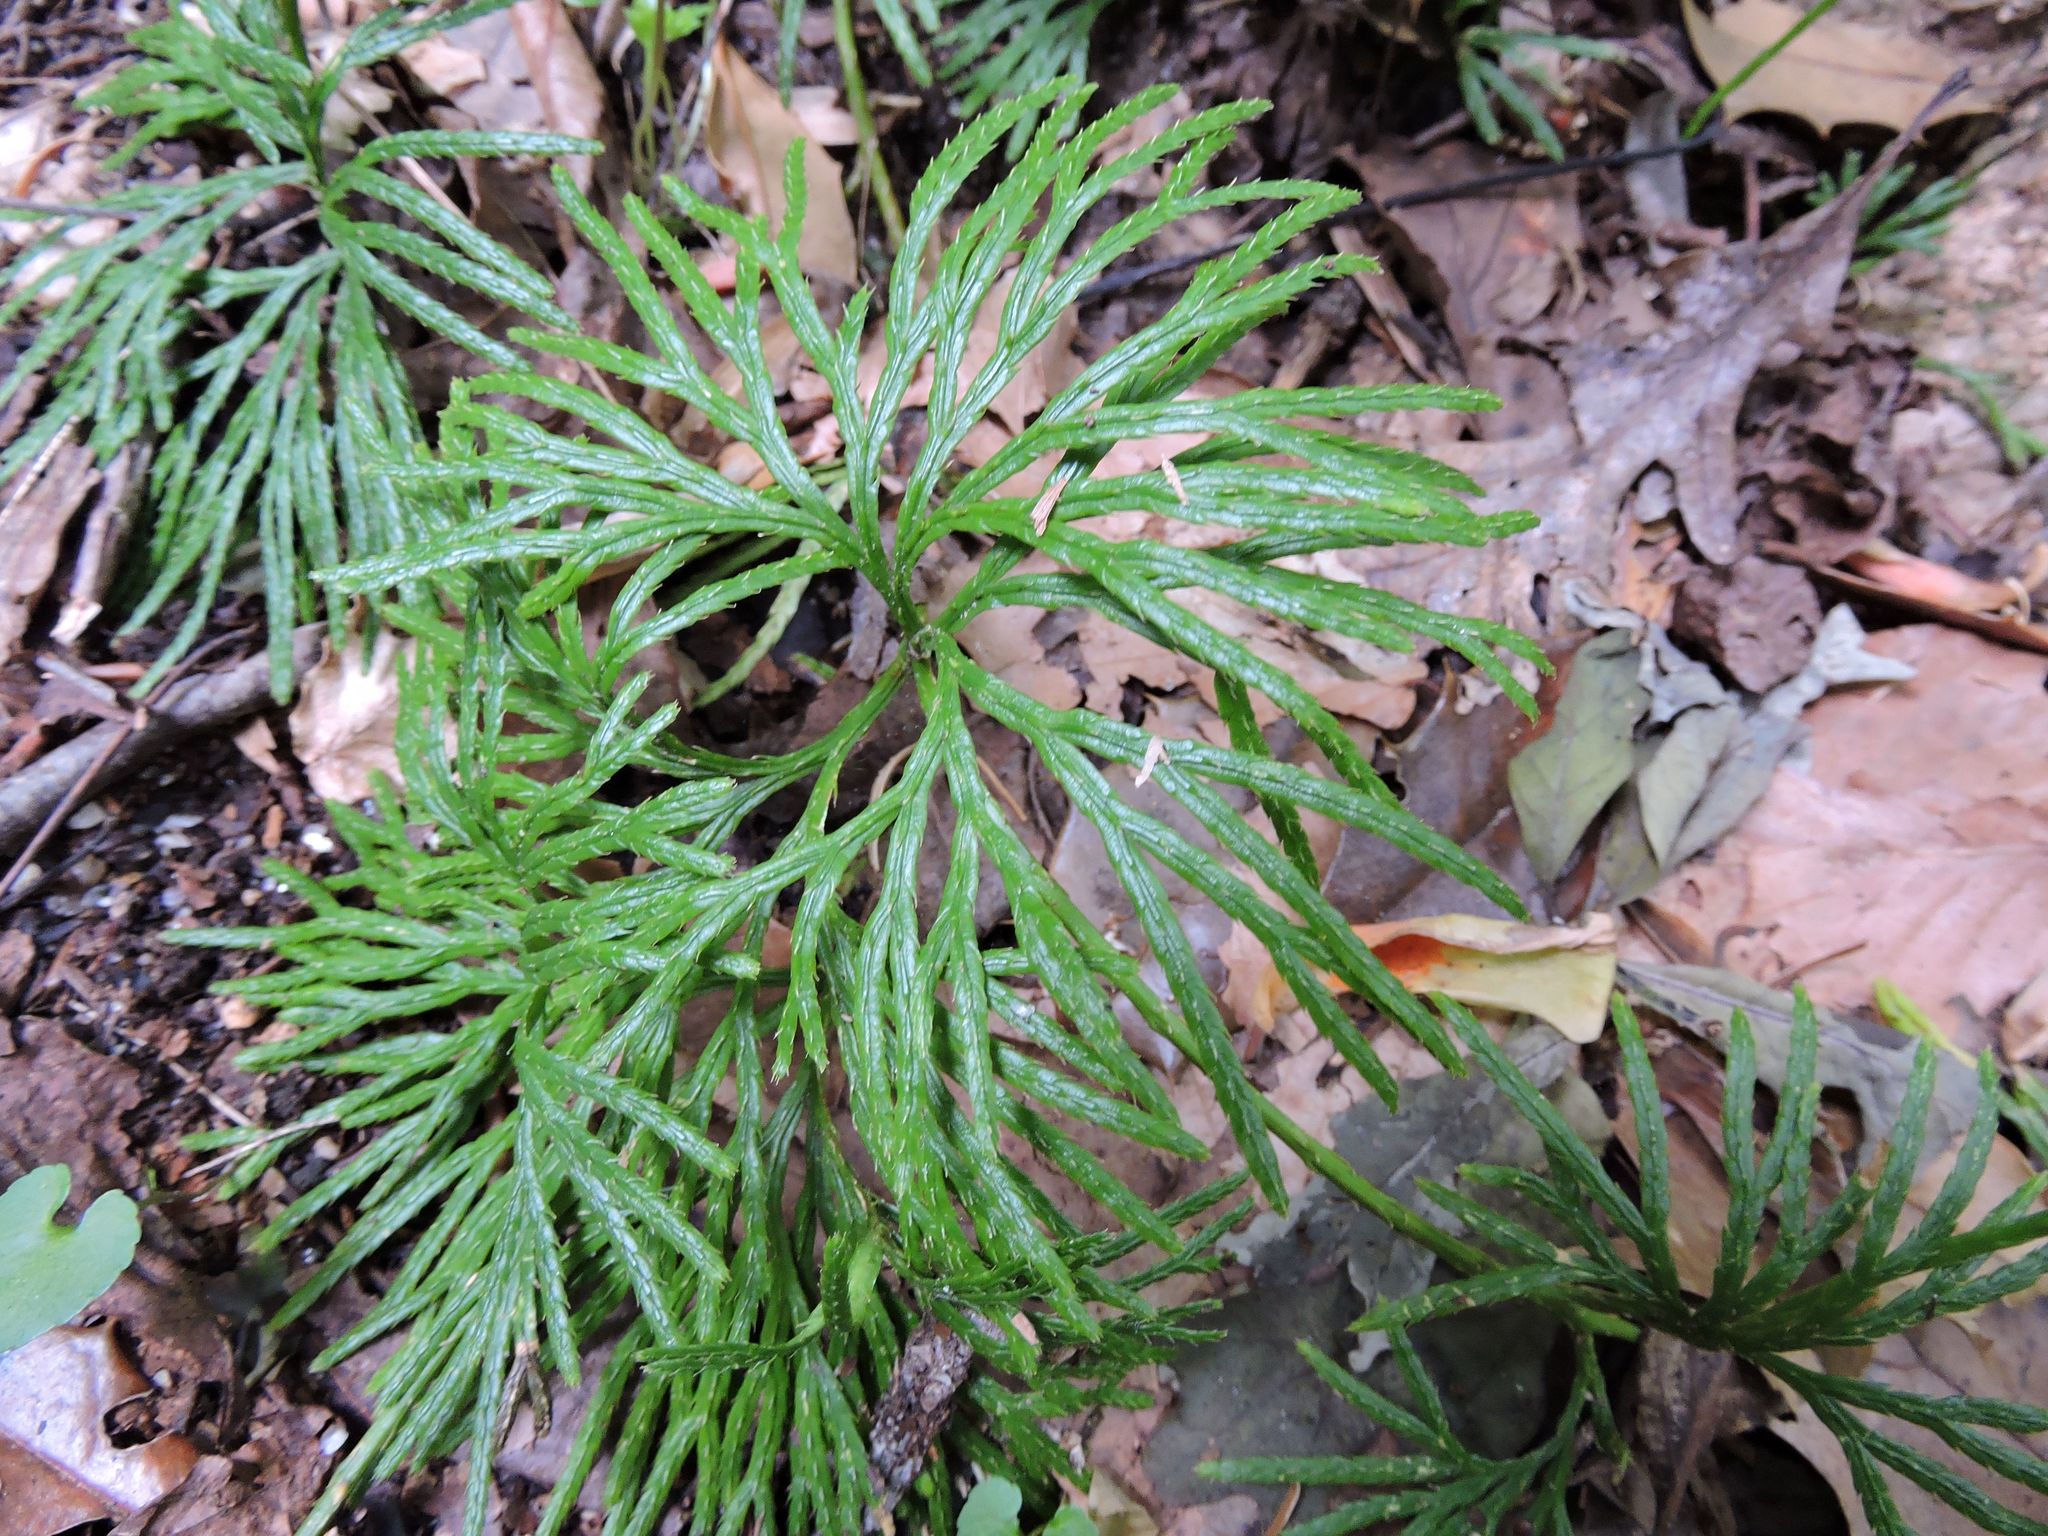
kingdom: Plantae
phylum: Tracheophyta
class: Lycopodiopsida
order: Lycopodiales
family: Lycopodiaceae
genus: Diphasiastrum
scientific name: Diphasiastrum digitatum
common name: Southern running-pine
